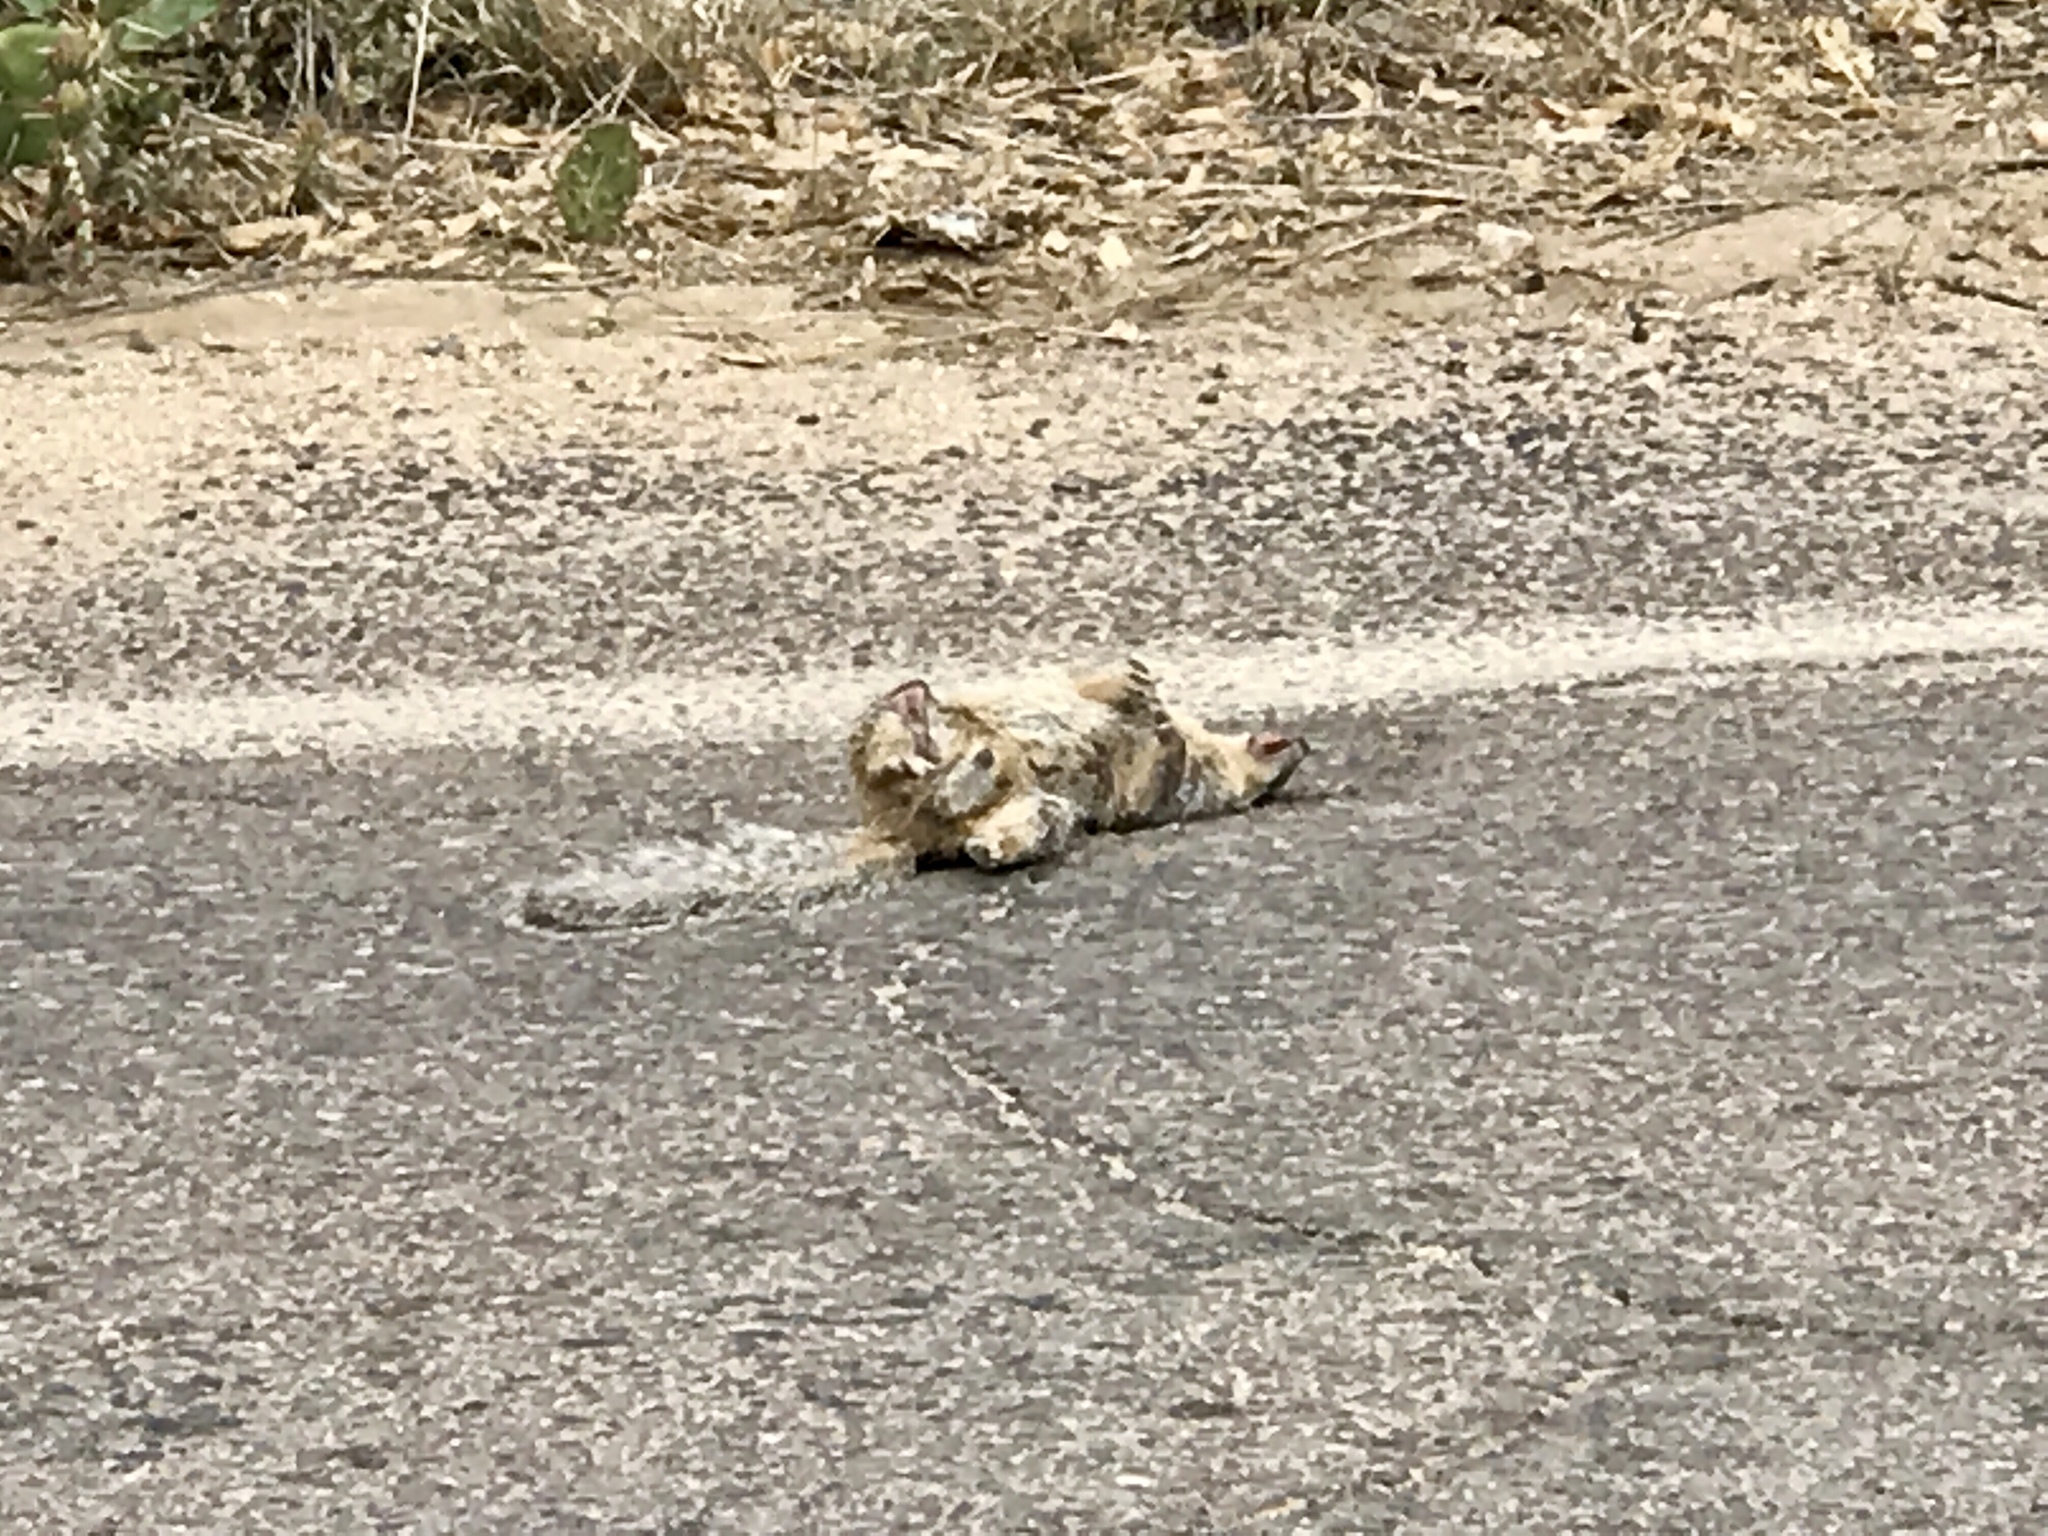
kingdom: Animalia
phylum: Chordata
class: Mammalia
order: Rodentia
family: Sciuridae
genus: Otospermophilus
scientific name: Otospermophilus variegatus
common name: Rock squirrel
